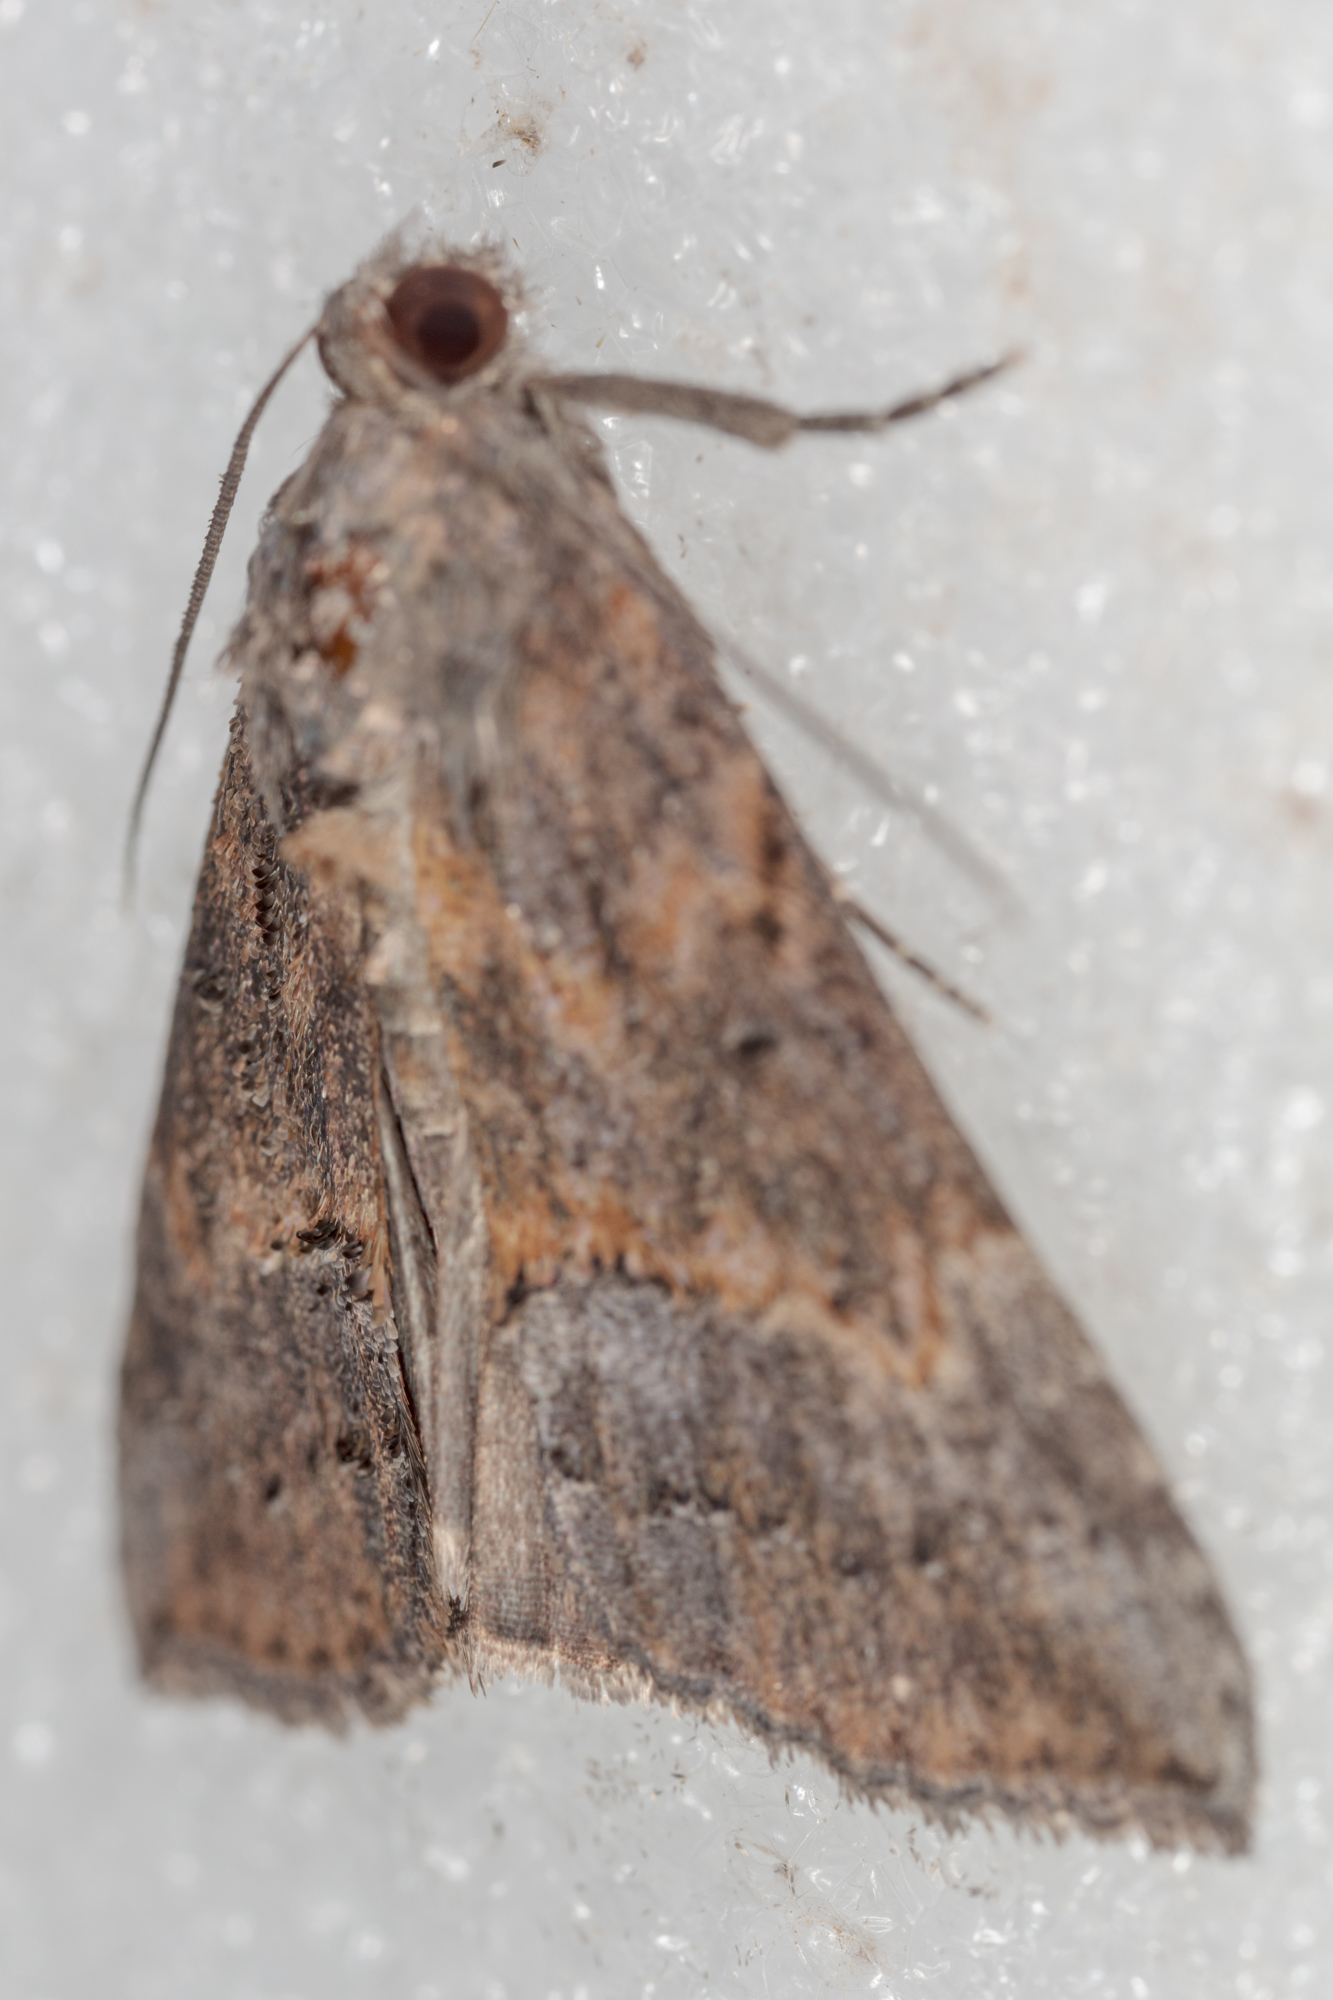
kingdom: Animalia
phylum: Arthropoda
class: Insecta
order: Lepidoptera
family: Erebidae
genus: Hypena
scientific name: Hypena scabra
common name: Green cloverworm
